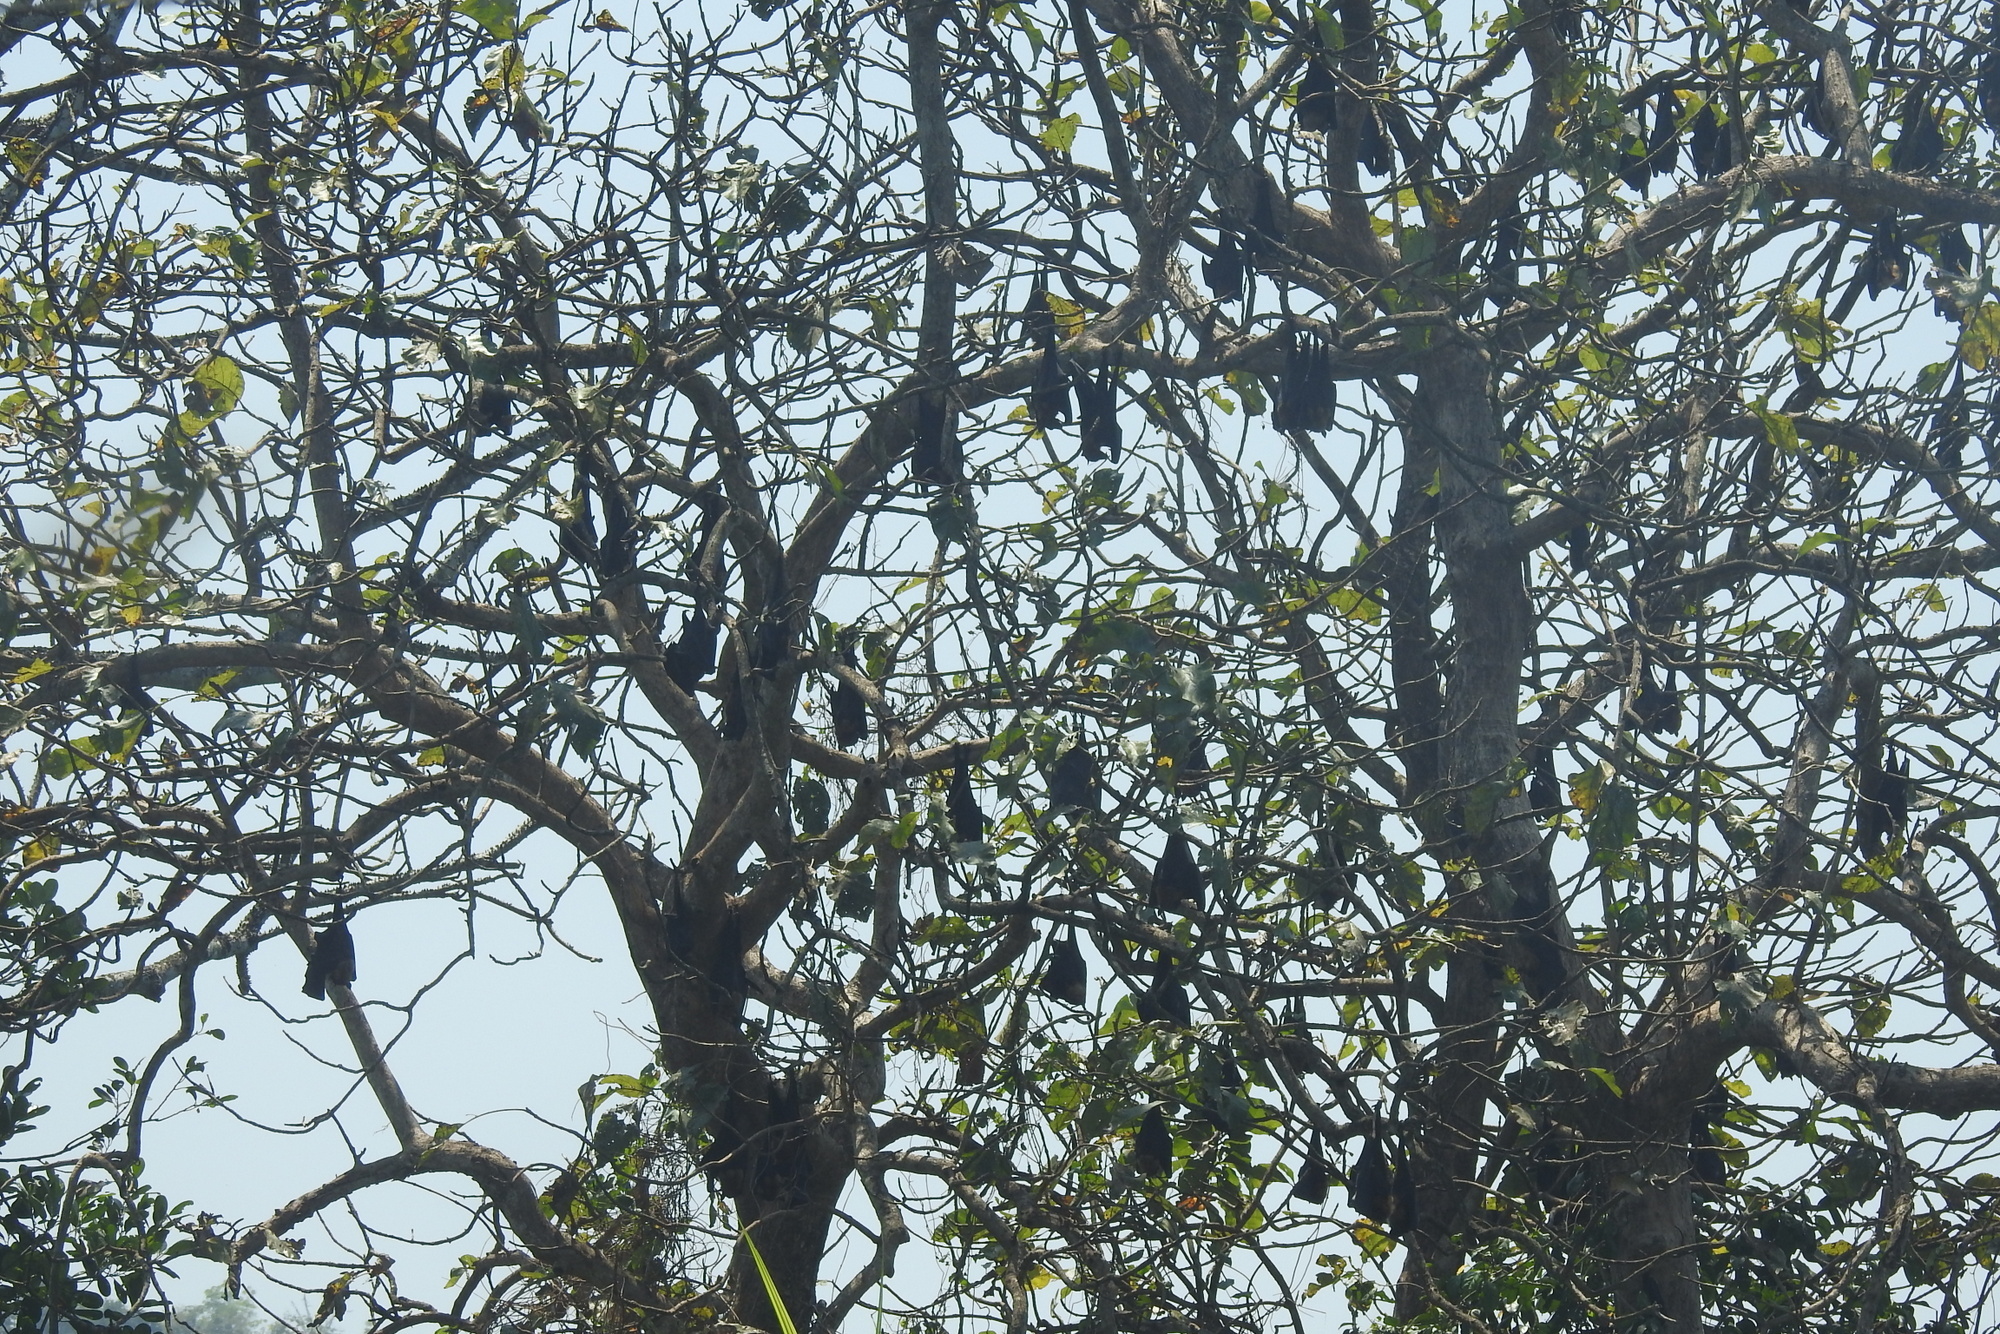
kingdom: Animalia
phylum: Chordata
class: Mammalia
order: Chiroptera
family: Pteropodidae
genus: Pteropus
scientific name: Pteropus vampyrus
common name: Large flying fox
